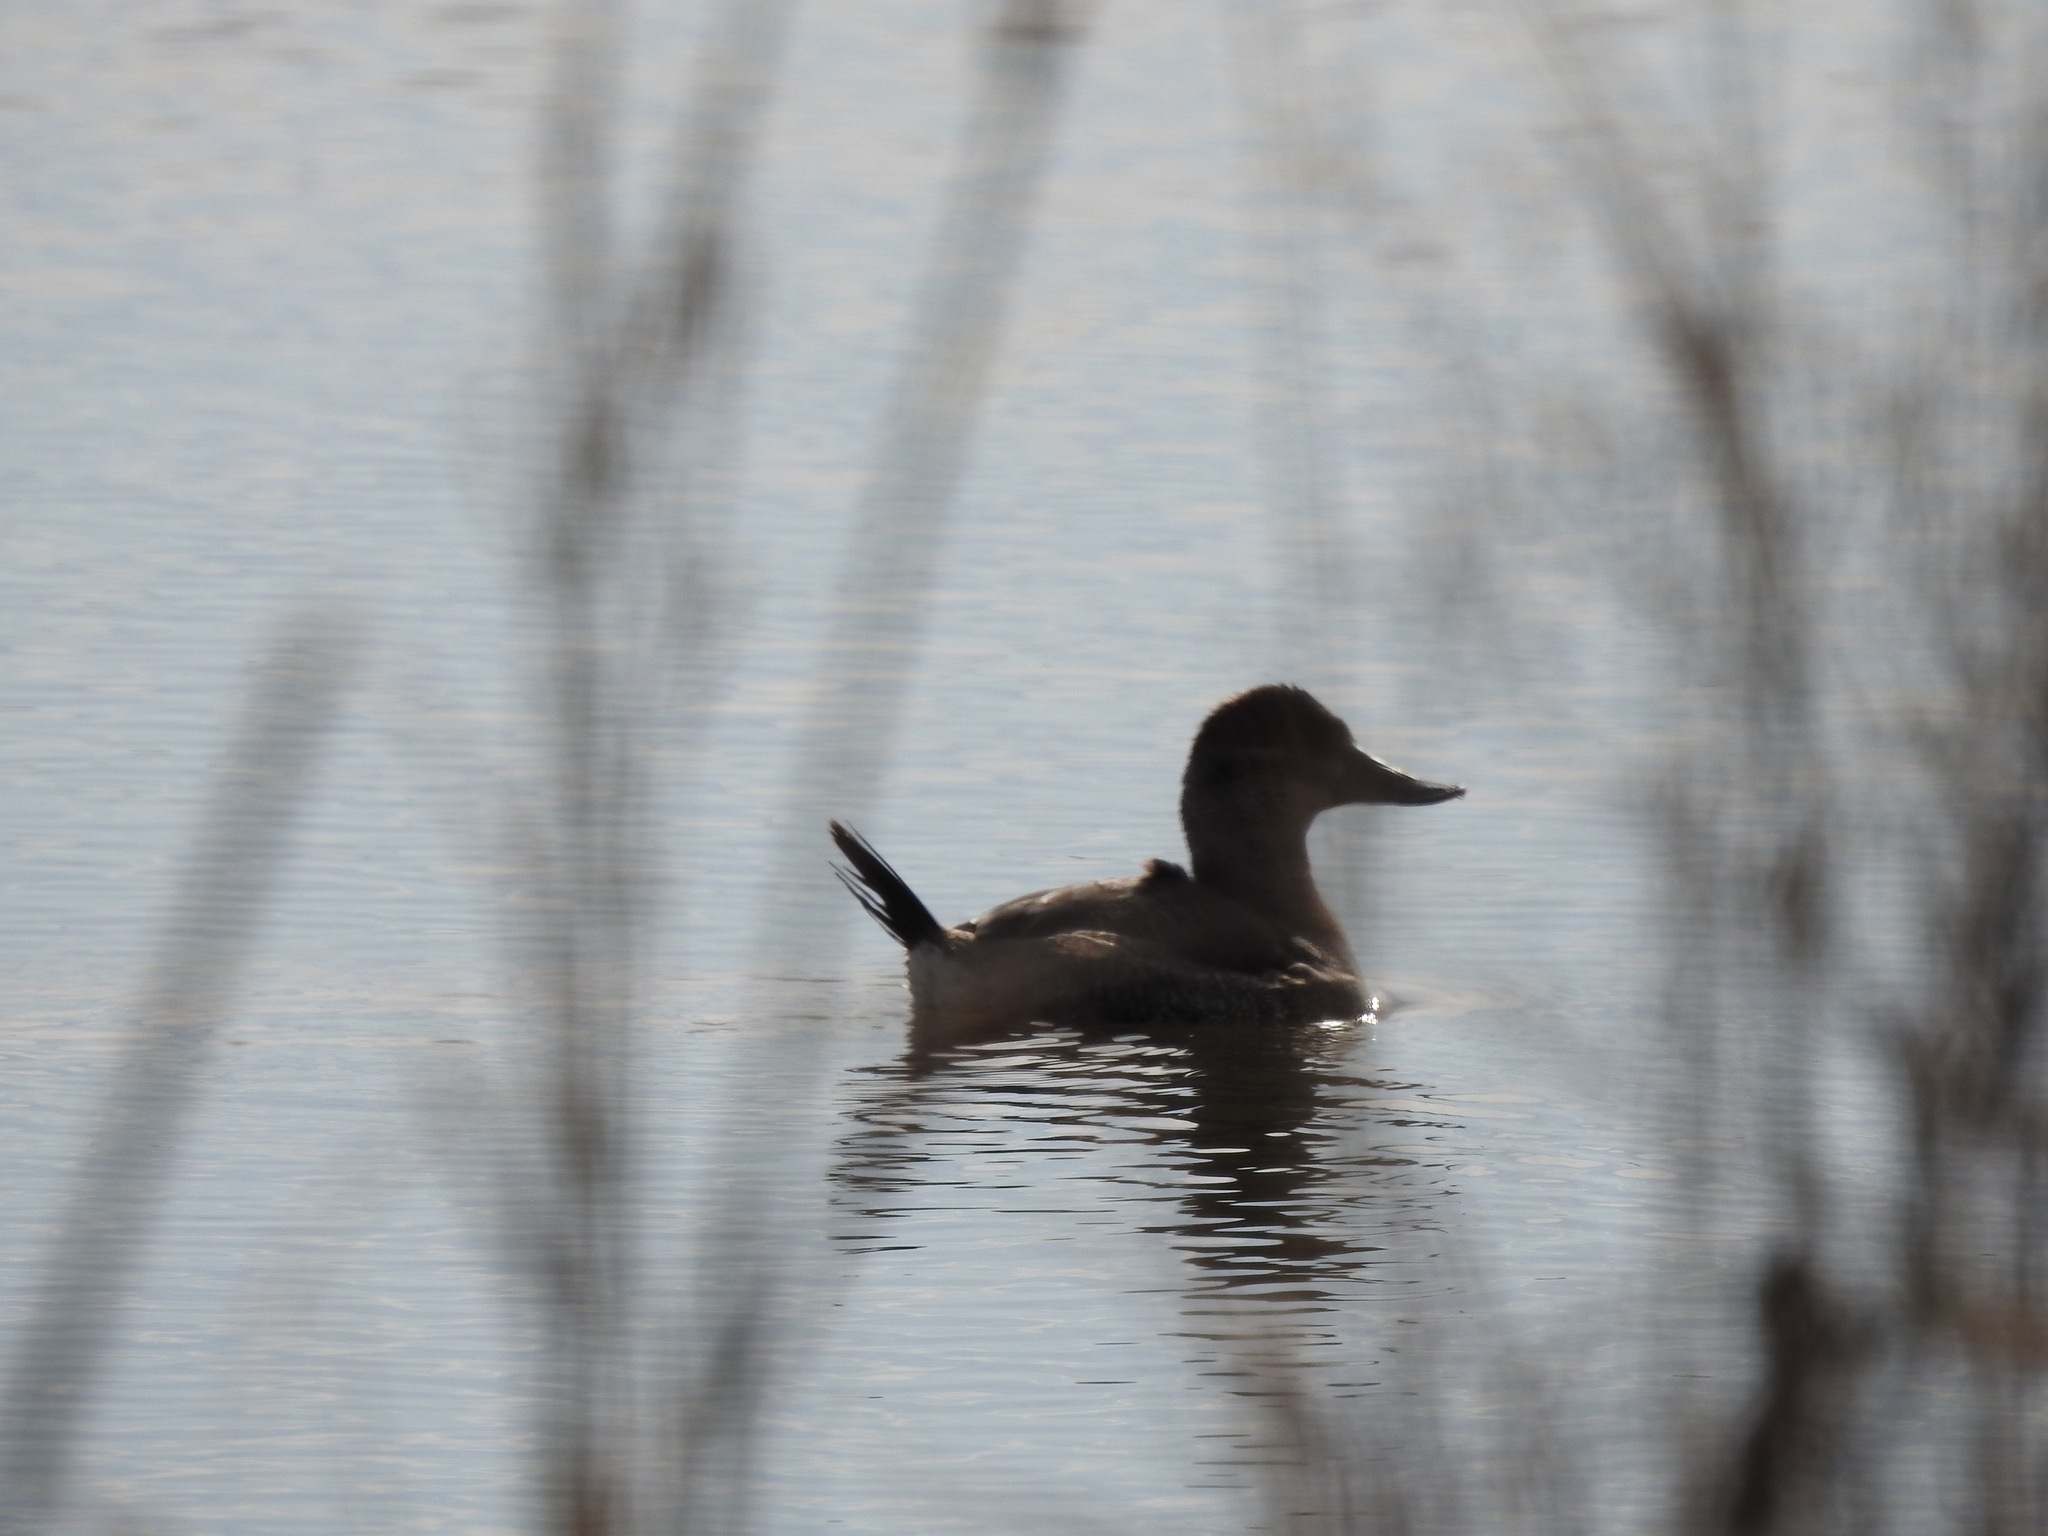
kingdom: Animalia
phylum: Chordata
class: Aves
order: Anseriformes
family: Anatidae
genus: Oxyura
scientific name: Oxyura jamaicensis
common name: Ruddy duck
